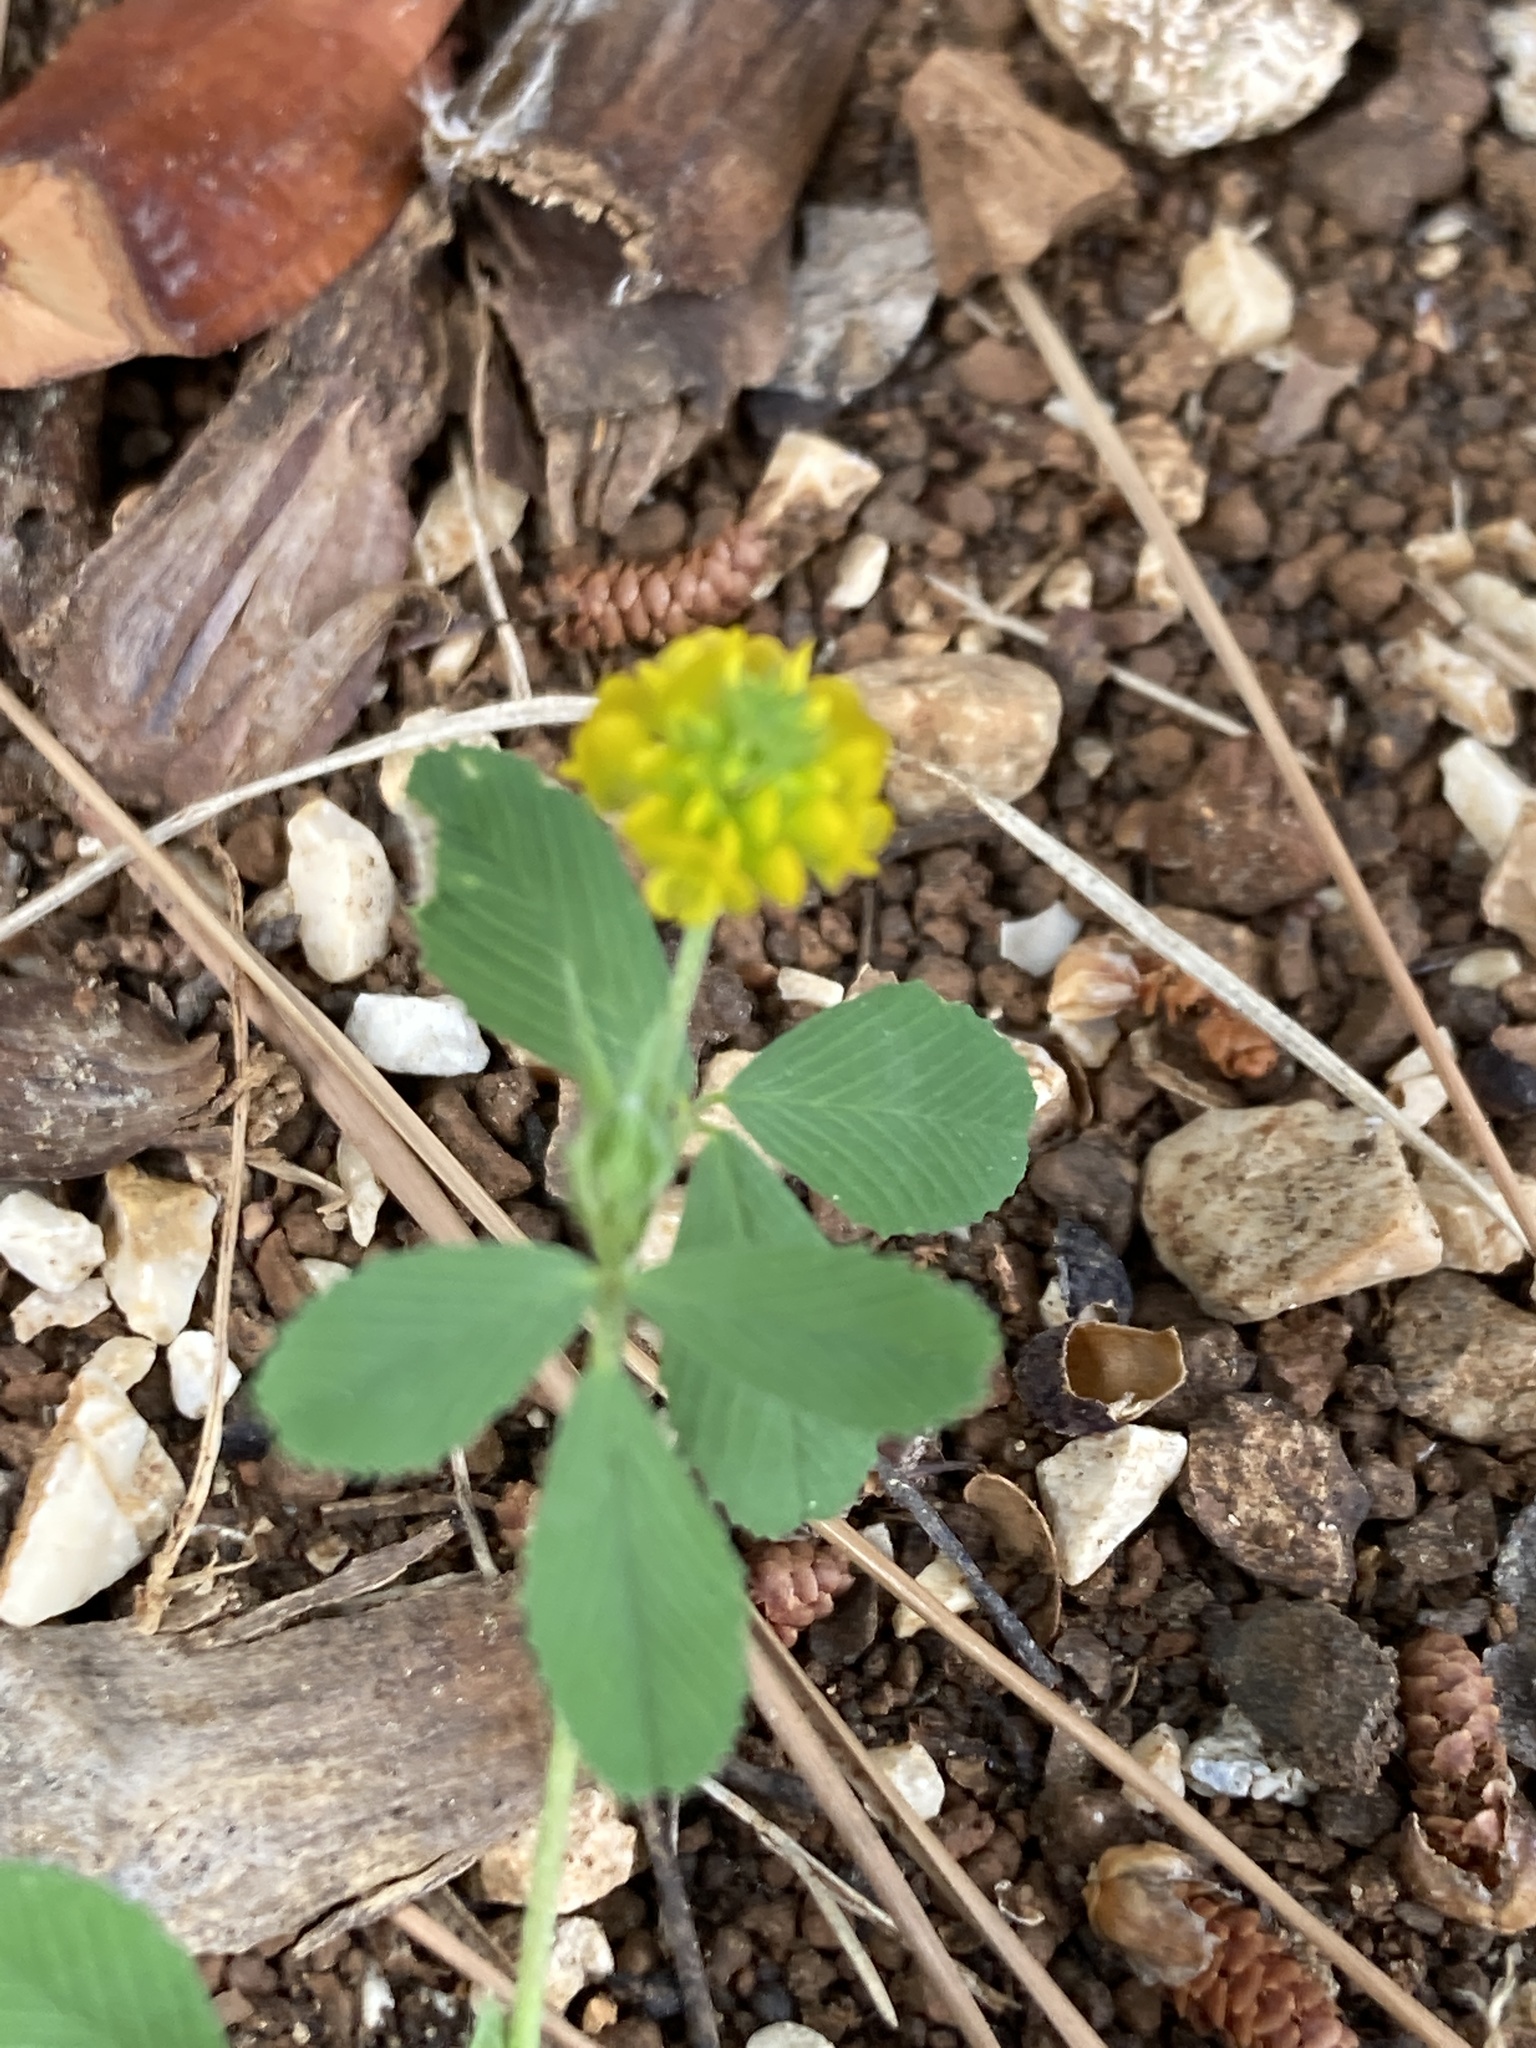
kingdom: Plantae
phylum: Tracheophyta
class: Magnoliopsida
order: Fabales
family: Fabaceae
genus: Trifolium
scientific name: Trifolium campestre
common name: Field clover
